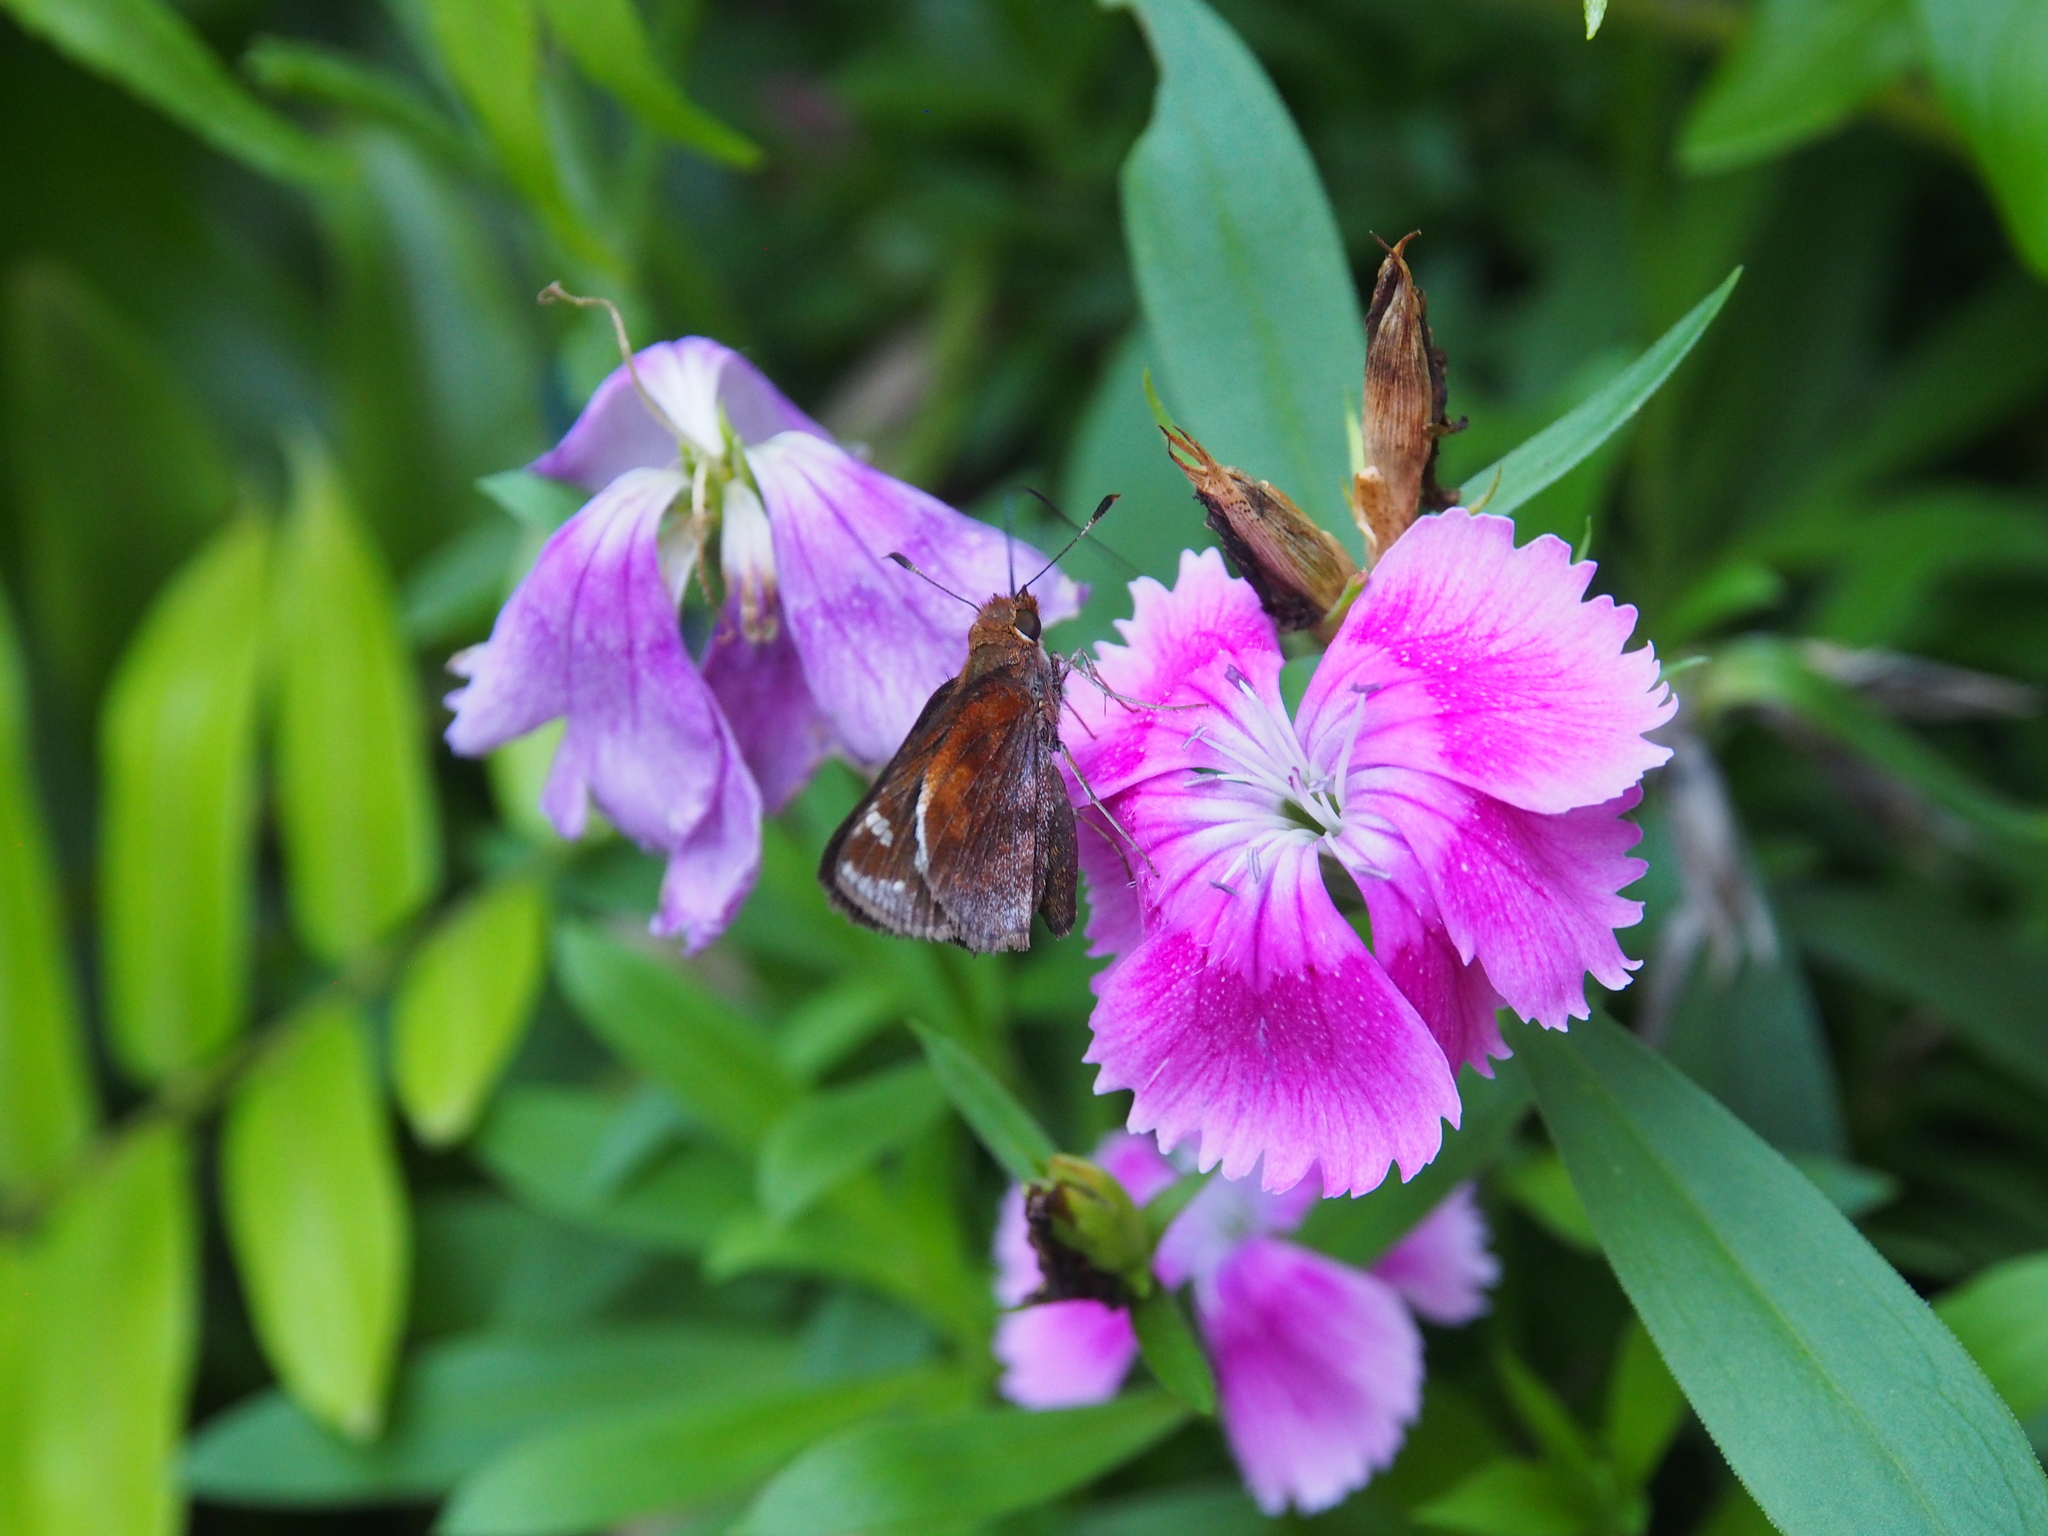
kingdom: Animalia
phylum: Arthropoda
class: Insecta
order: Lepidoptera
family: Hesperiidae
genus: Lon
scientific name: Lon zabulon
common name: Zabulon skipper
